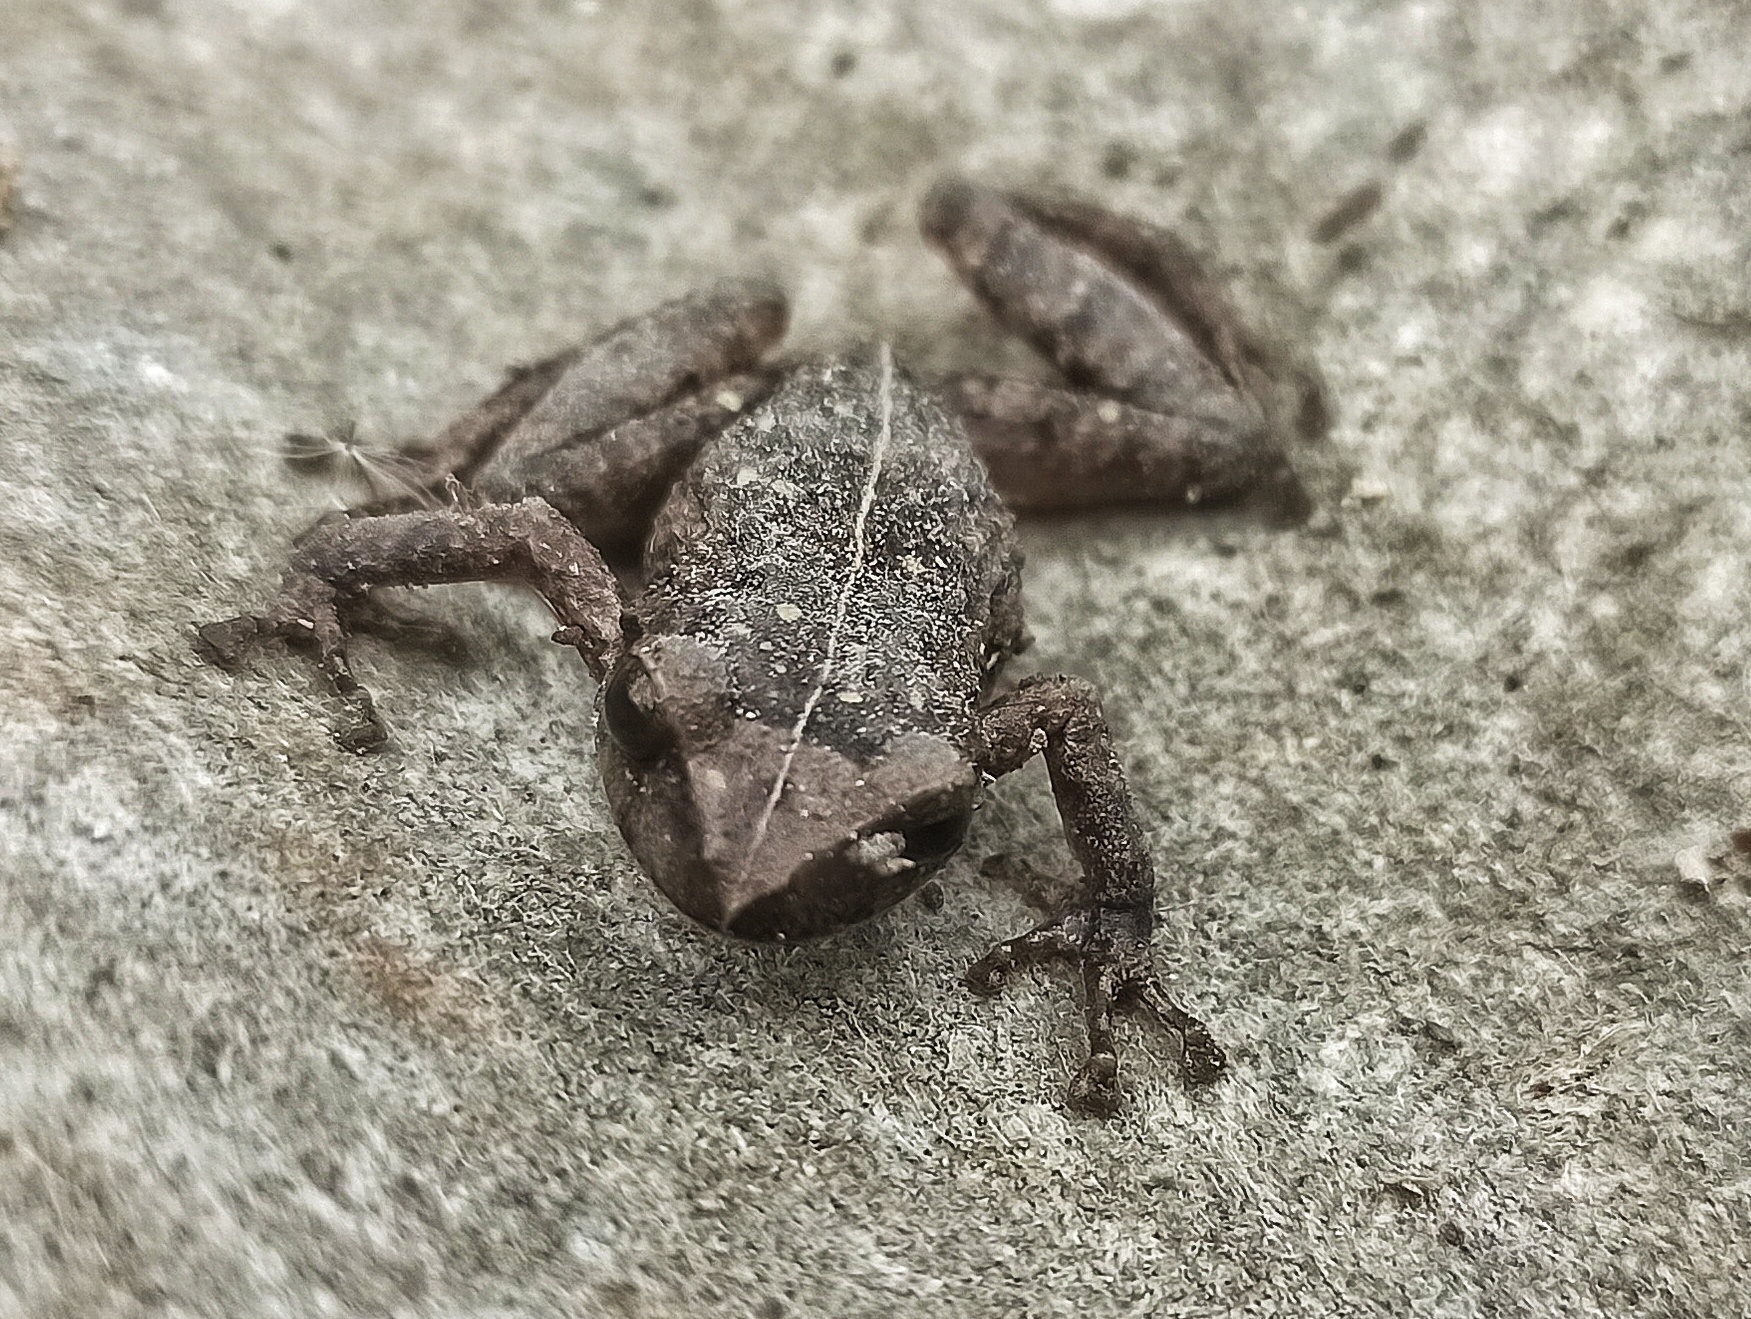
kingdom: Animalia
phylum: Chordata
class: Amphibia
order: Anura
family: Craugastoridae
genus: Pristimantis
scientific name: Pristimantis unistrigatus
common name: Striped robber frog
